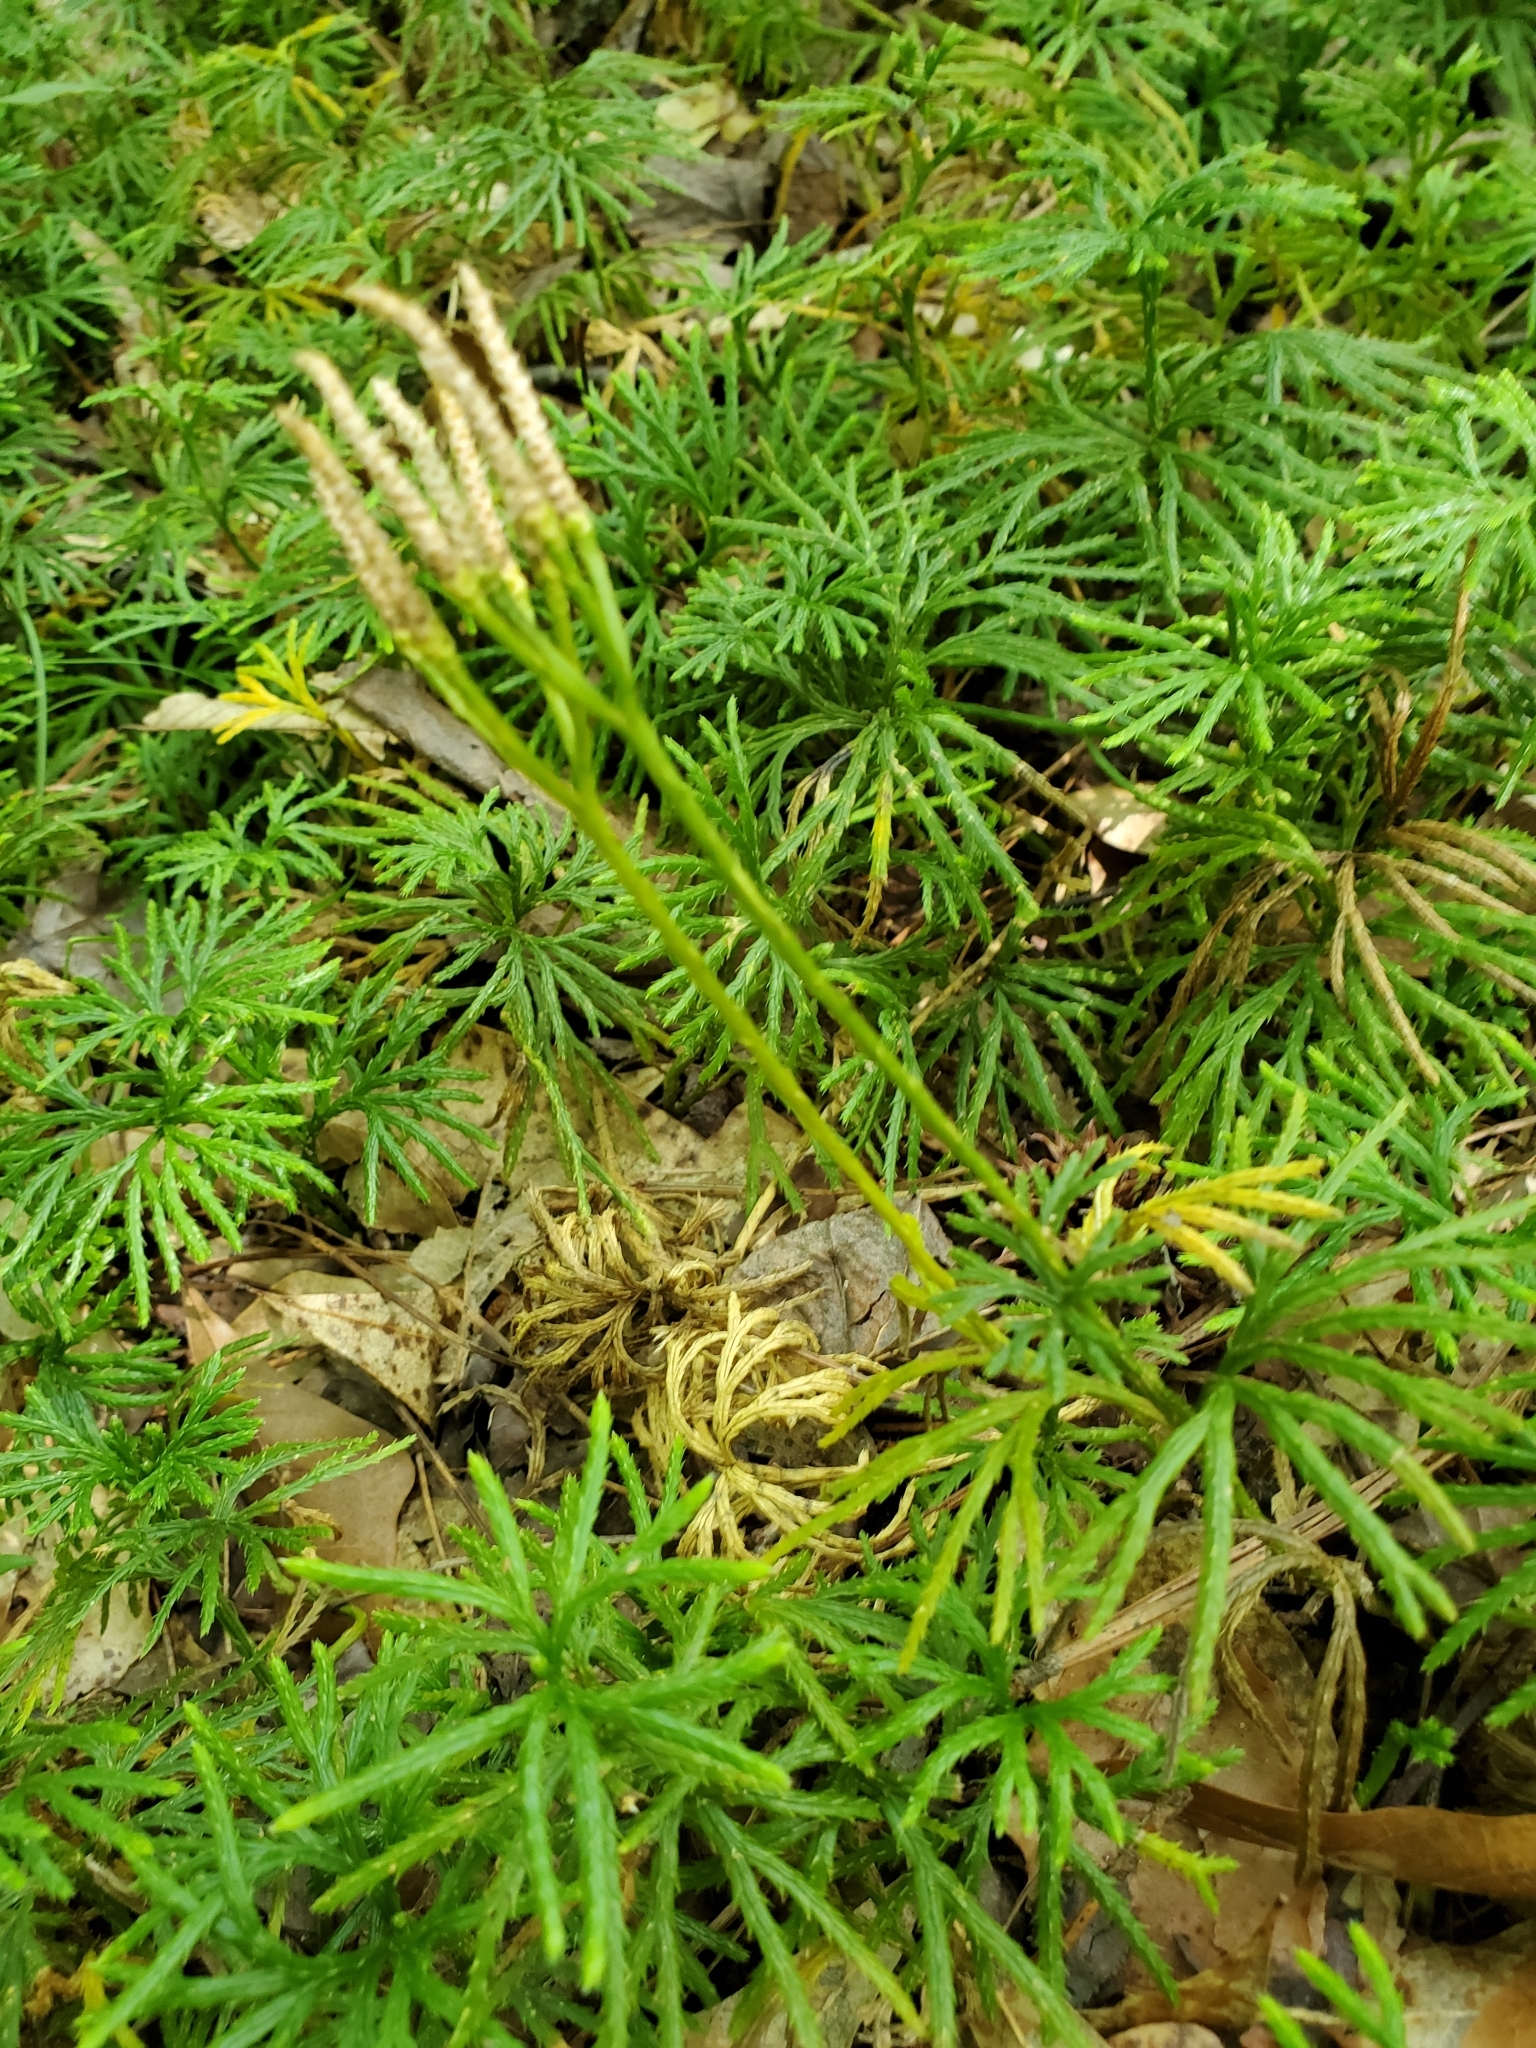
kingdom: Plantae
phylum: Tracheophyta
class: Lycopodiopsida
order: Lycopodiales
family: Lycopodiaceae
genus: Diphasiastrum
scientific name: Diphasiastrum digitatum
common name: Southern running-pine
